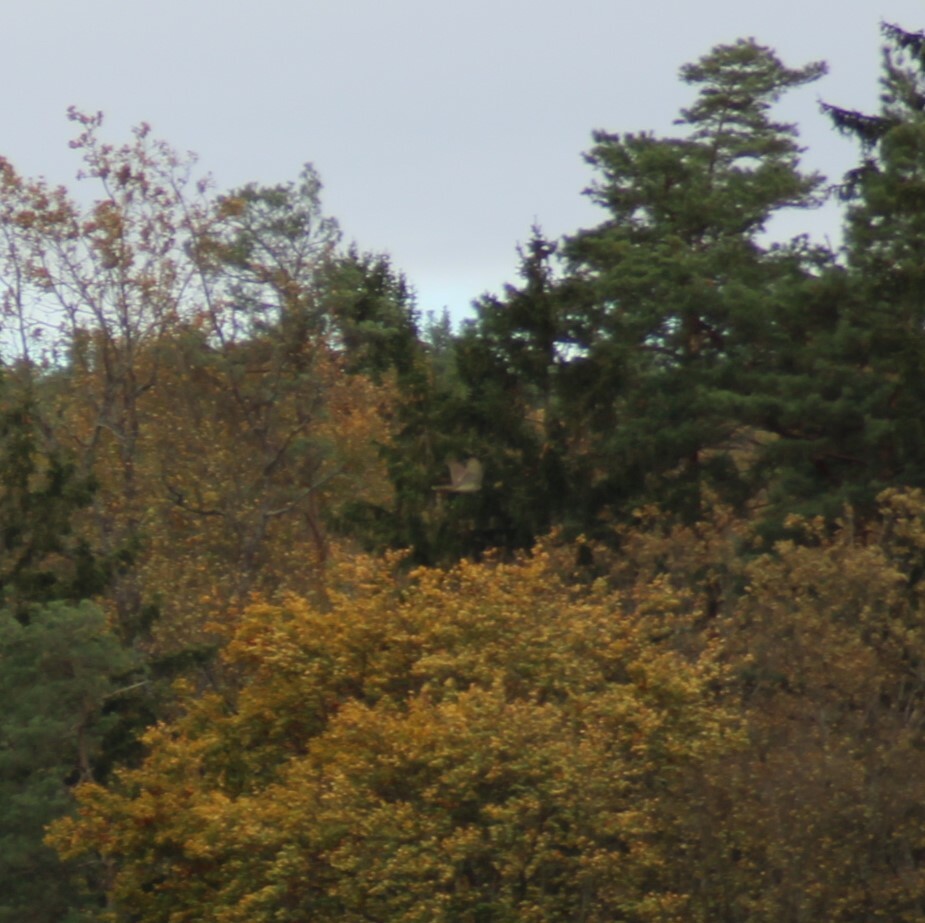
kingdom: Animalia
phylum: Chordata
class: Aves
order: Accipitriformes
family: Accipitridae
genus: Accipiter
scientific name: Accipiter nisus
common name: Eurasian sparrowhawk
